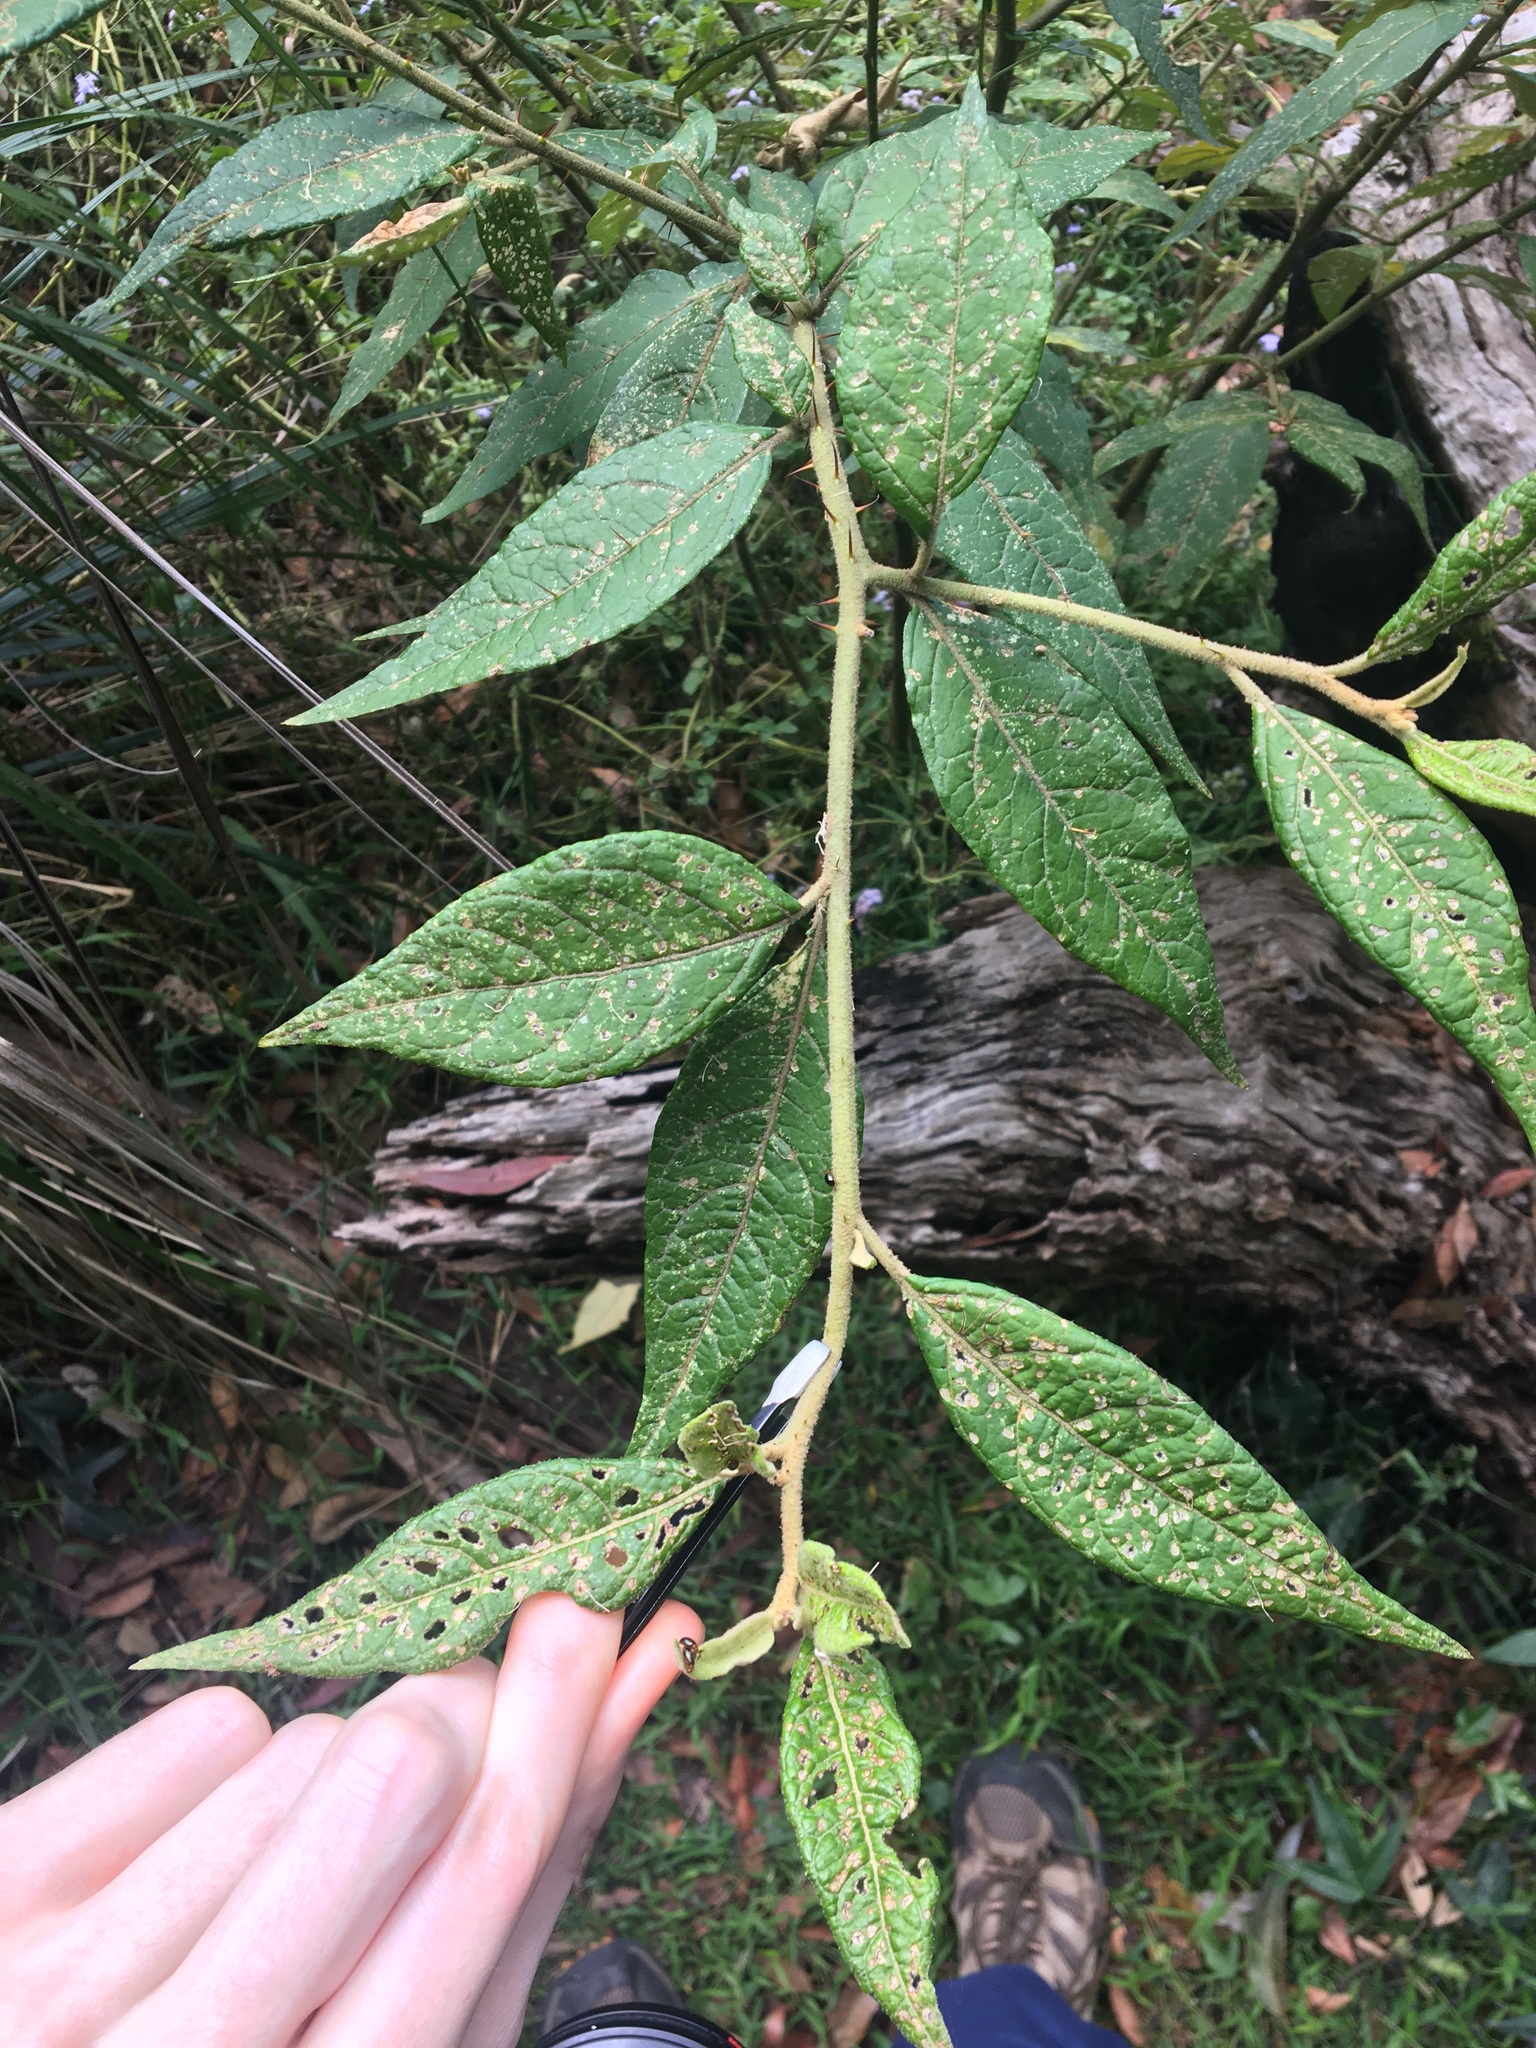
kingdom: Plantae
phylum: Tracheophyta
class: Magnoliopsida
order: Solanales
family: Solanaceae
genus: Solanum
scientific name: Solanum stelligerum
